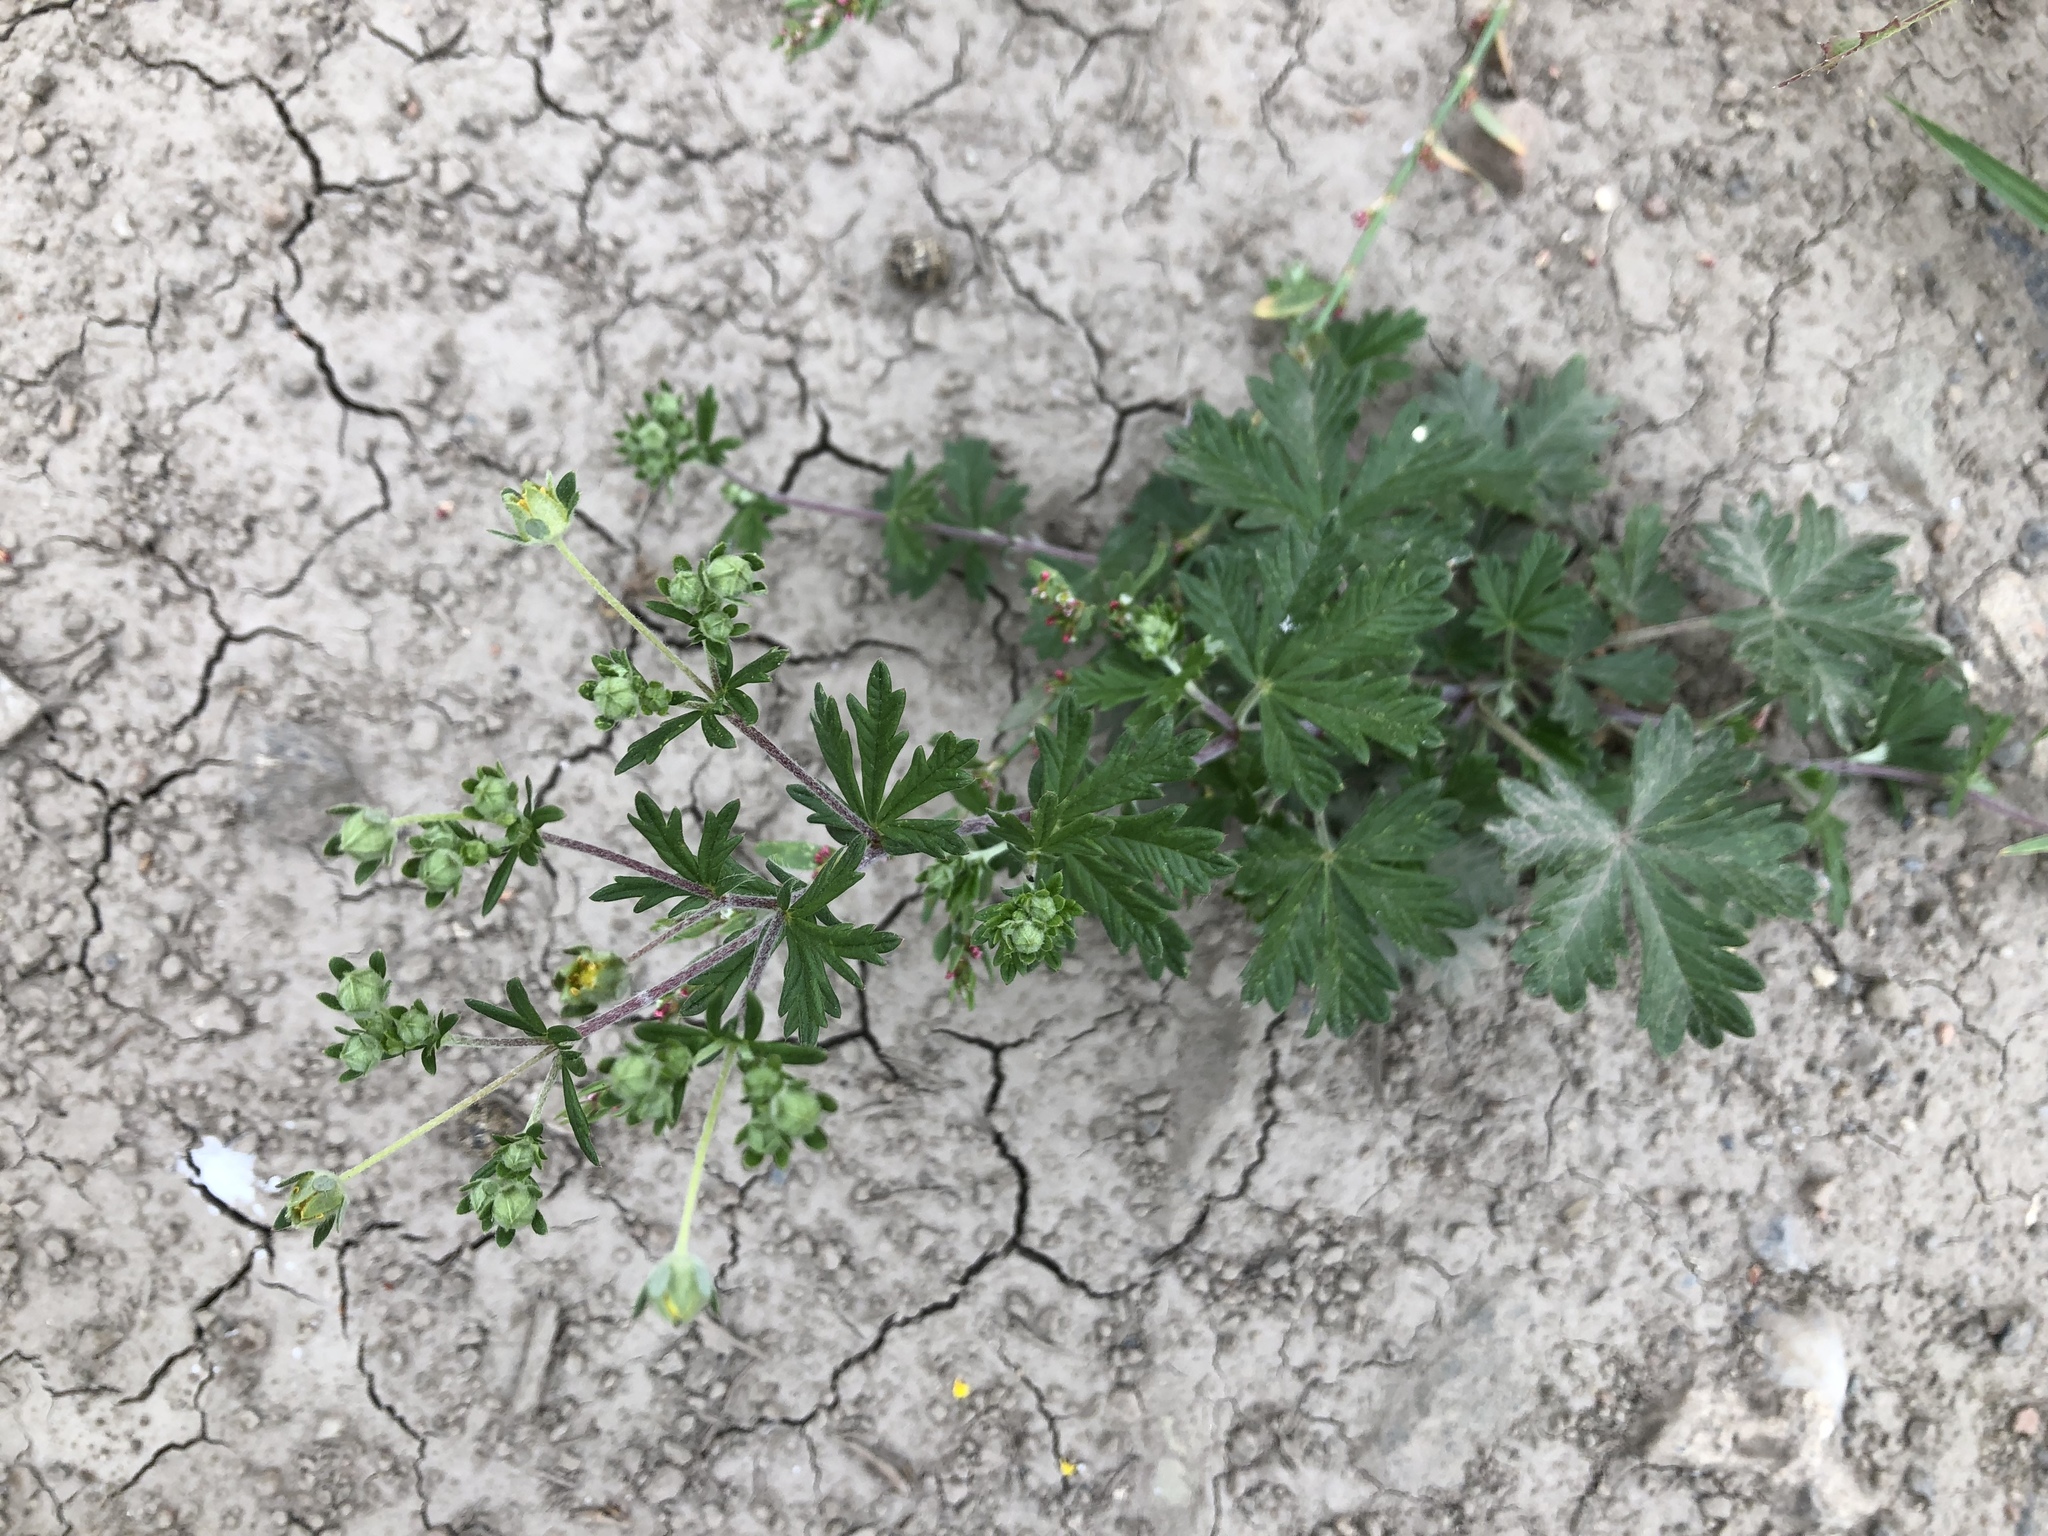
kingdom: Plantae
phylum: Tracheophyta
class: Magnoliopsida
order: Rosales
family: Rosaceae
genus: Potentilla
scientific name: Potentilla argentea
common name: Hoary cinquefoil
